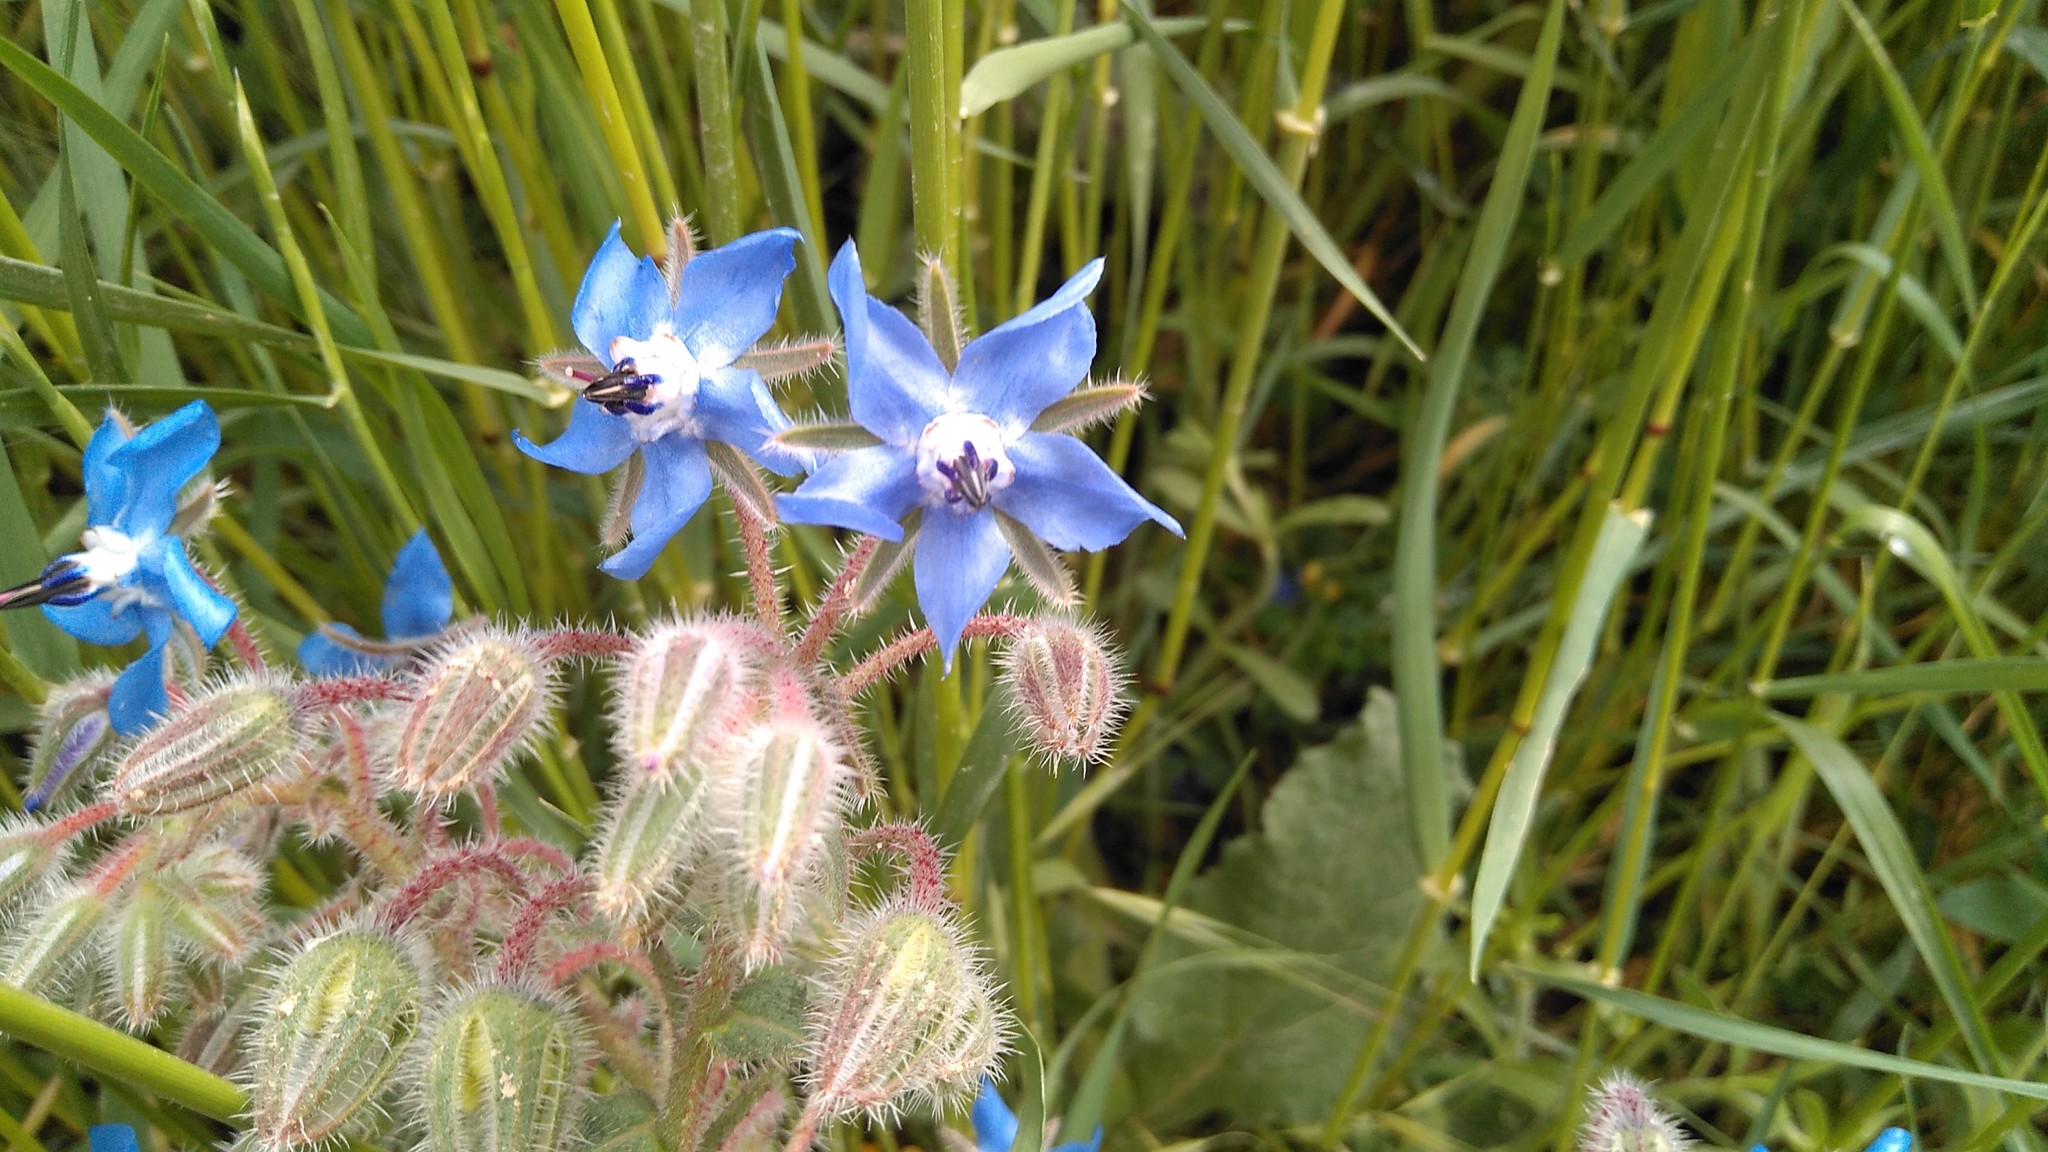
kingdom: Plantae
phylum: Tracheophyta
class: Magnoliopsida
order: Boraginales
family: Boraginaceae
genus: Borago
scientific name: Borago officinalis
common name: Borage
